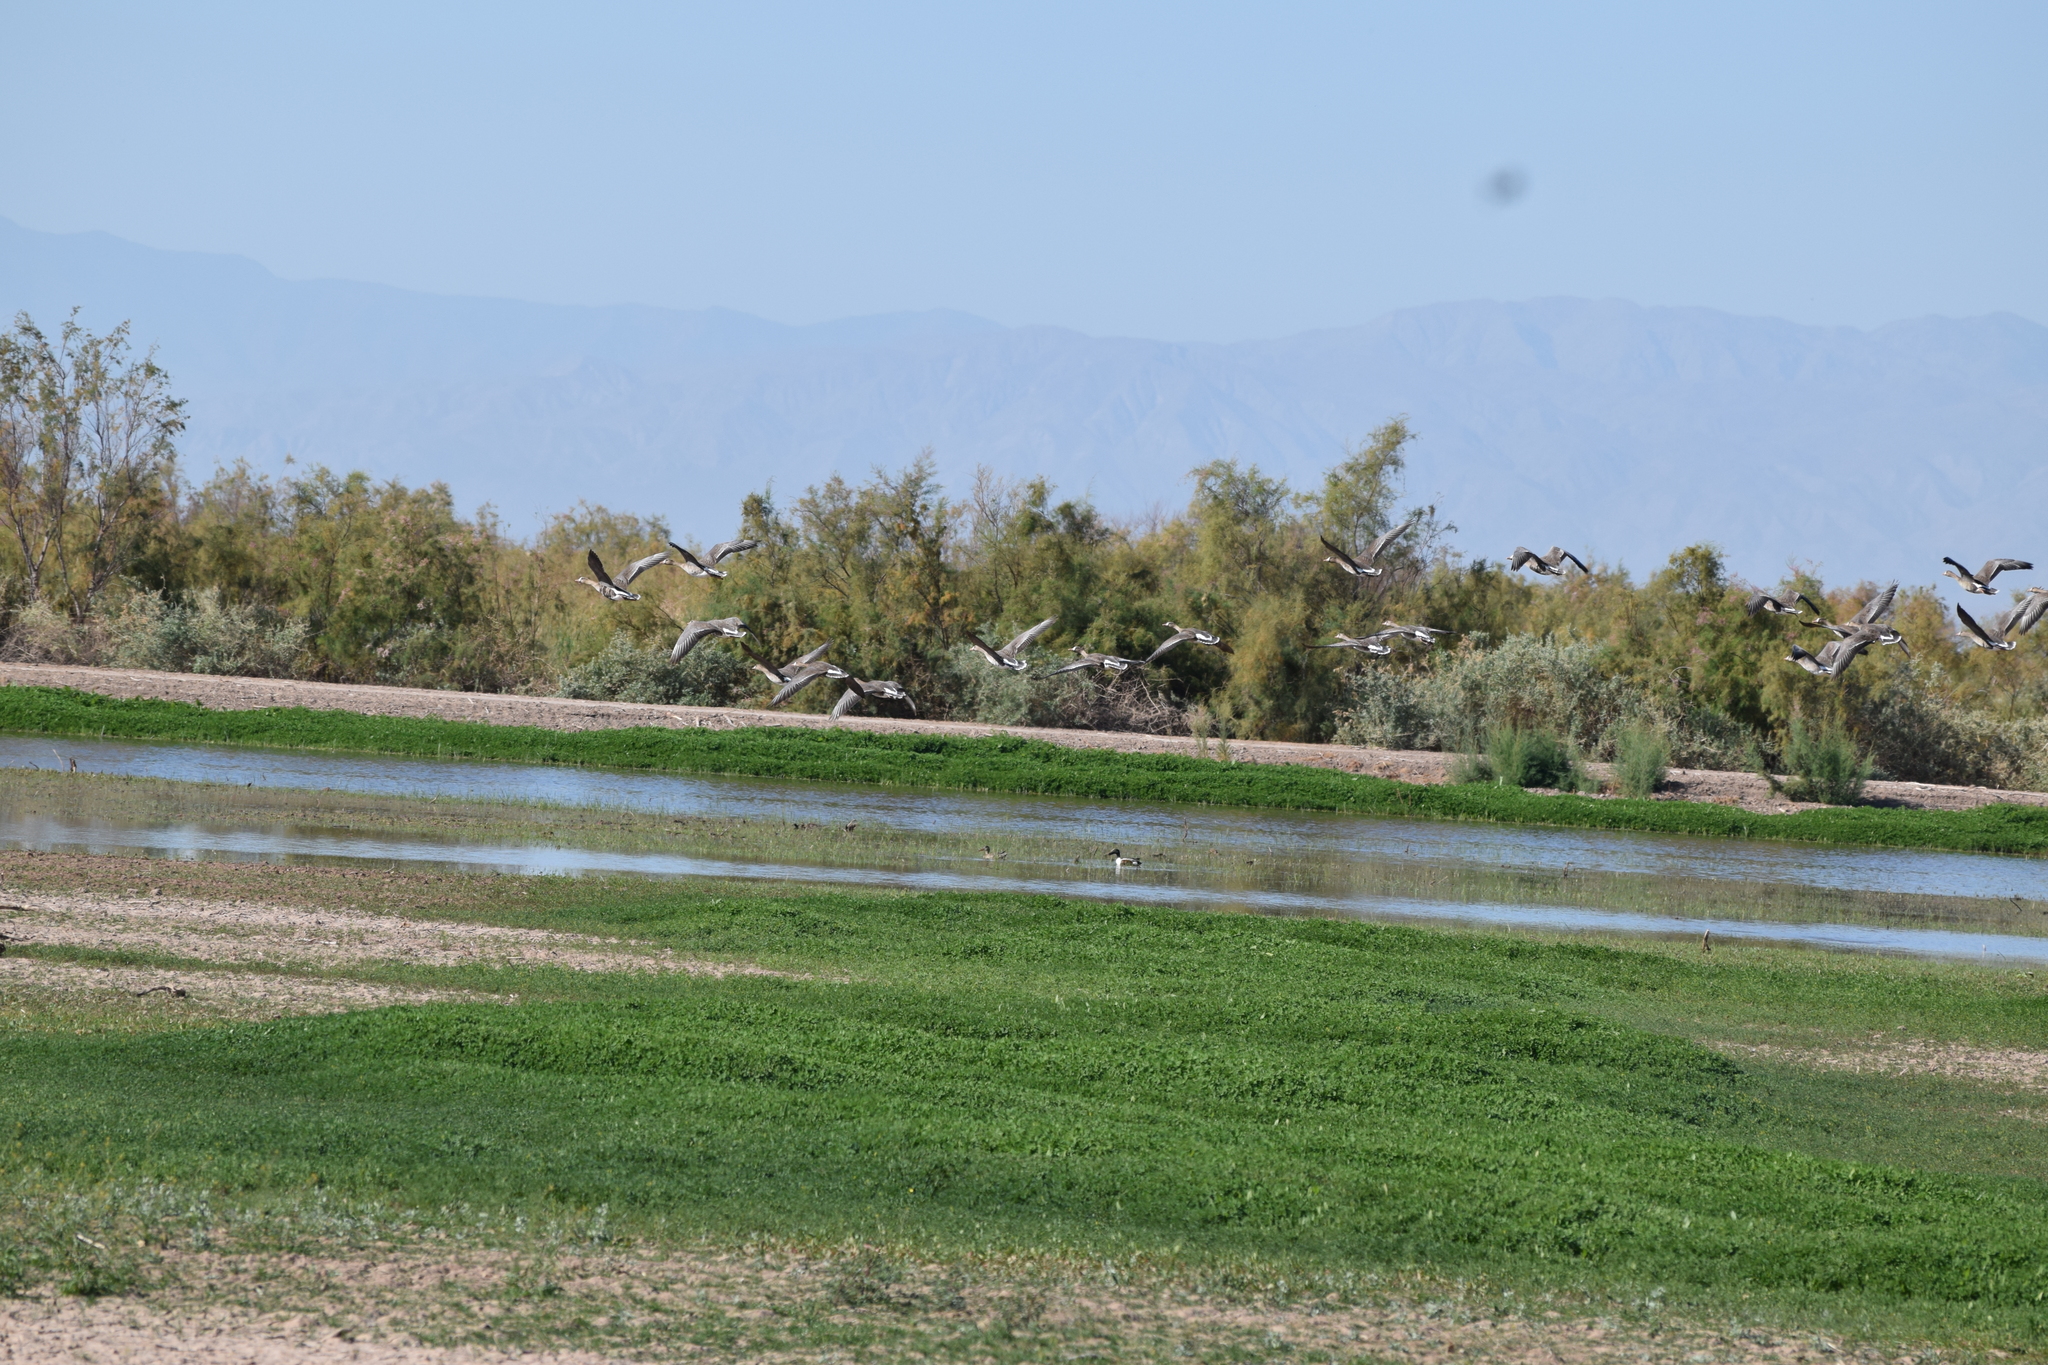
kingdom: Animalia
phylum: Chordata
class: Aves
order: Anseriformes
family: Anatidae
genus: Anser
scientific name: Anser albifrons
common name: Greater white-fronted goose
